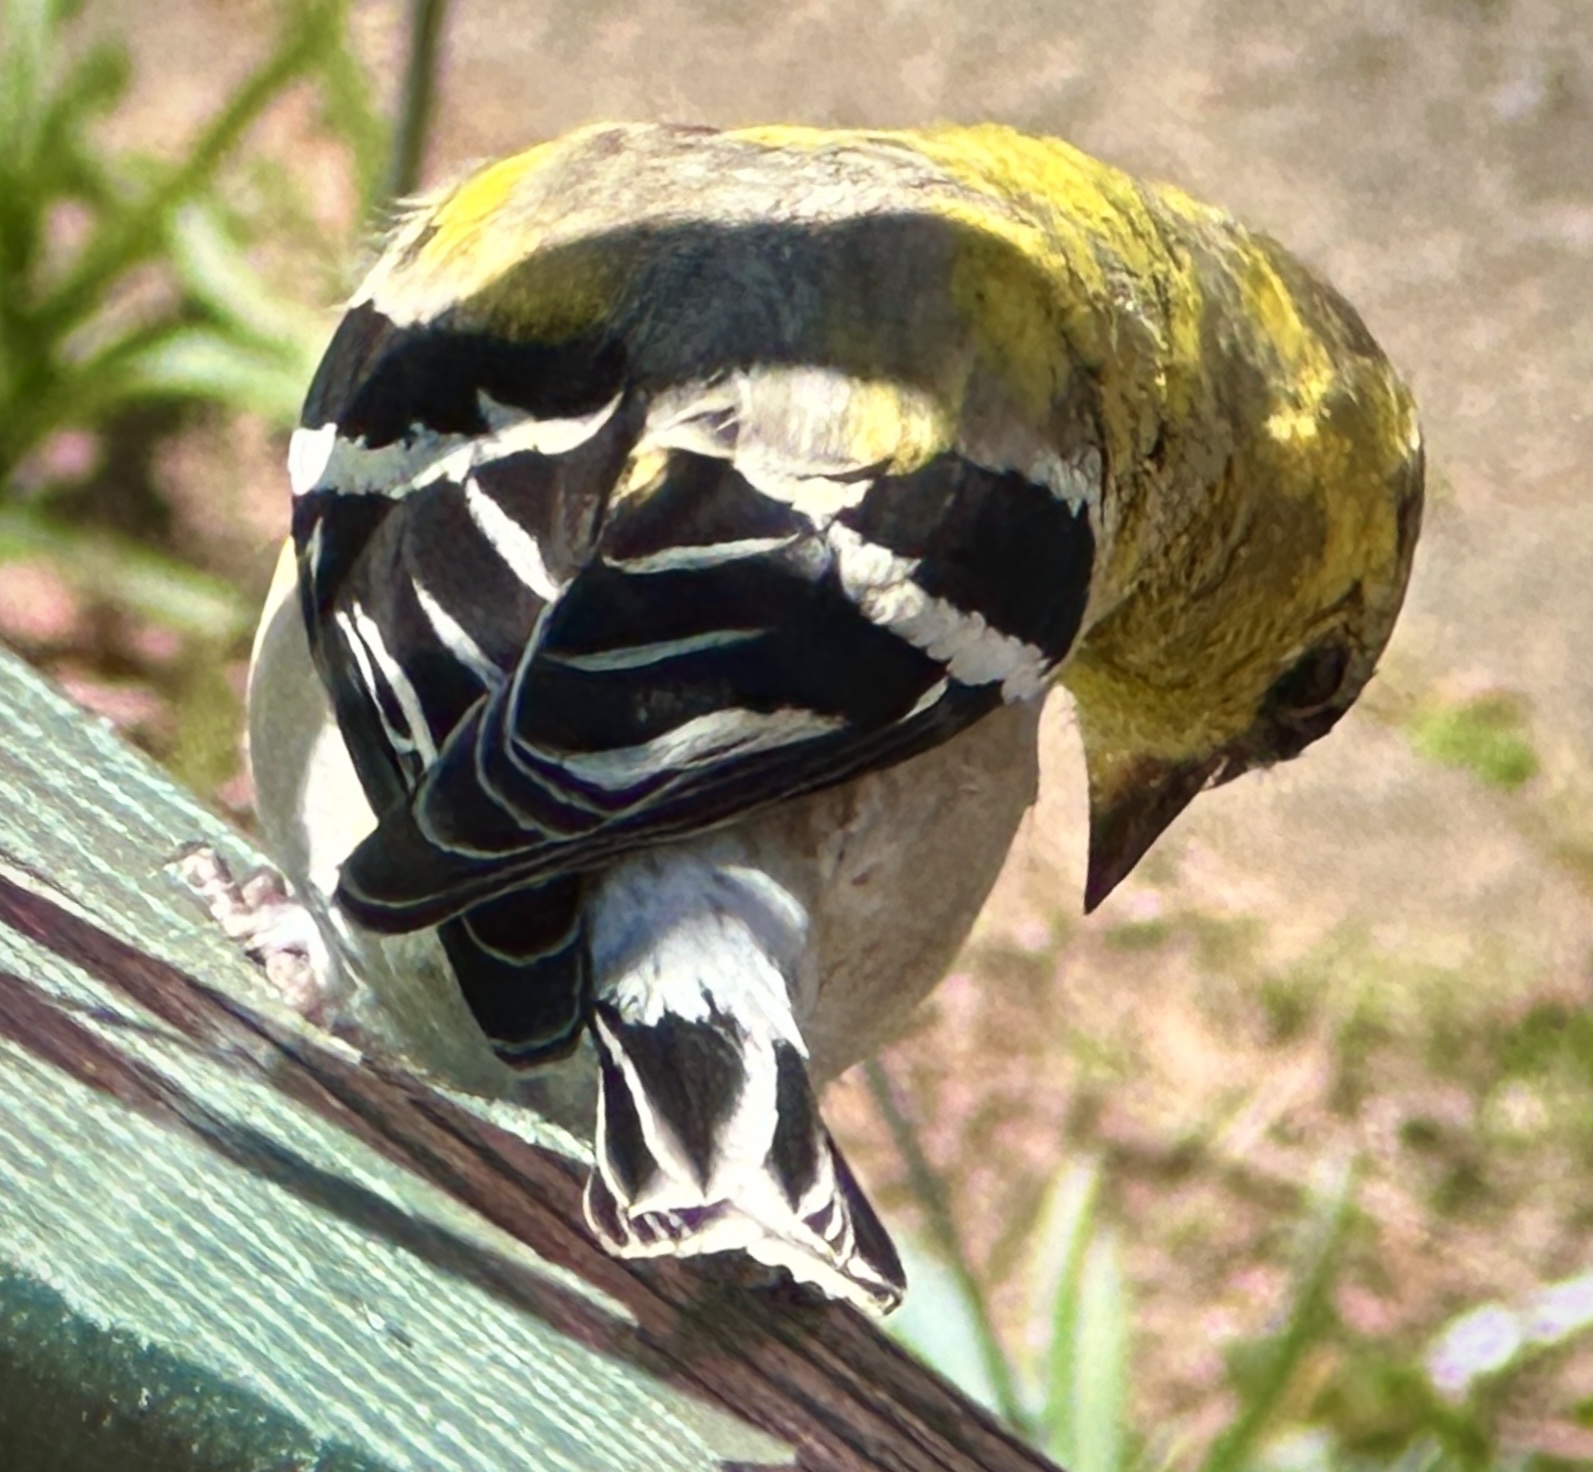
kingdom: Animalia
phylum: Chordata
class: Aves
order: Passeriformes
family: Fringillidae
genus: Spinus
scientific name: Spinus tristis
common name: American goldfinch
